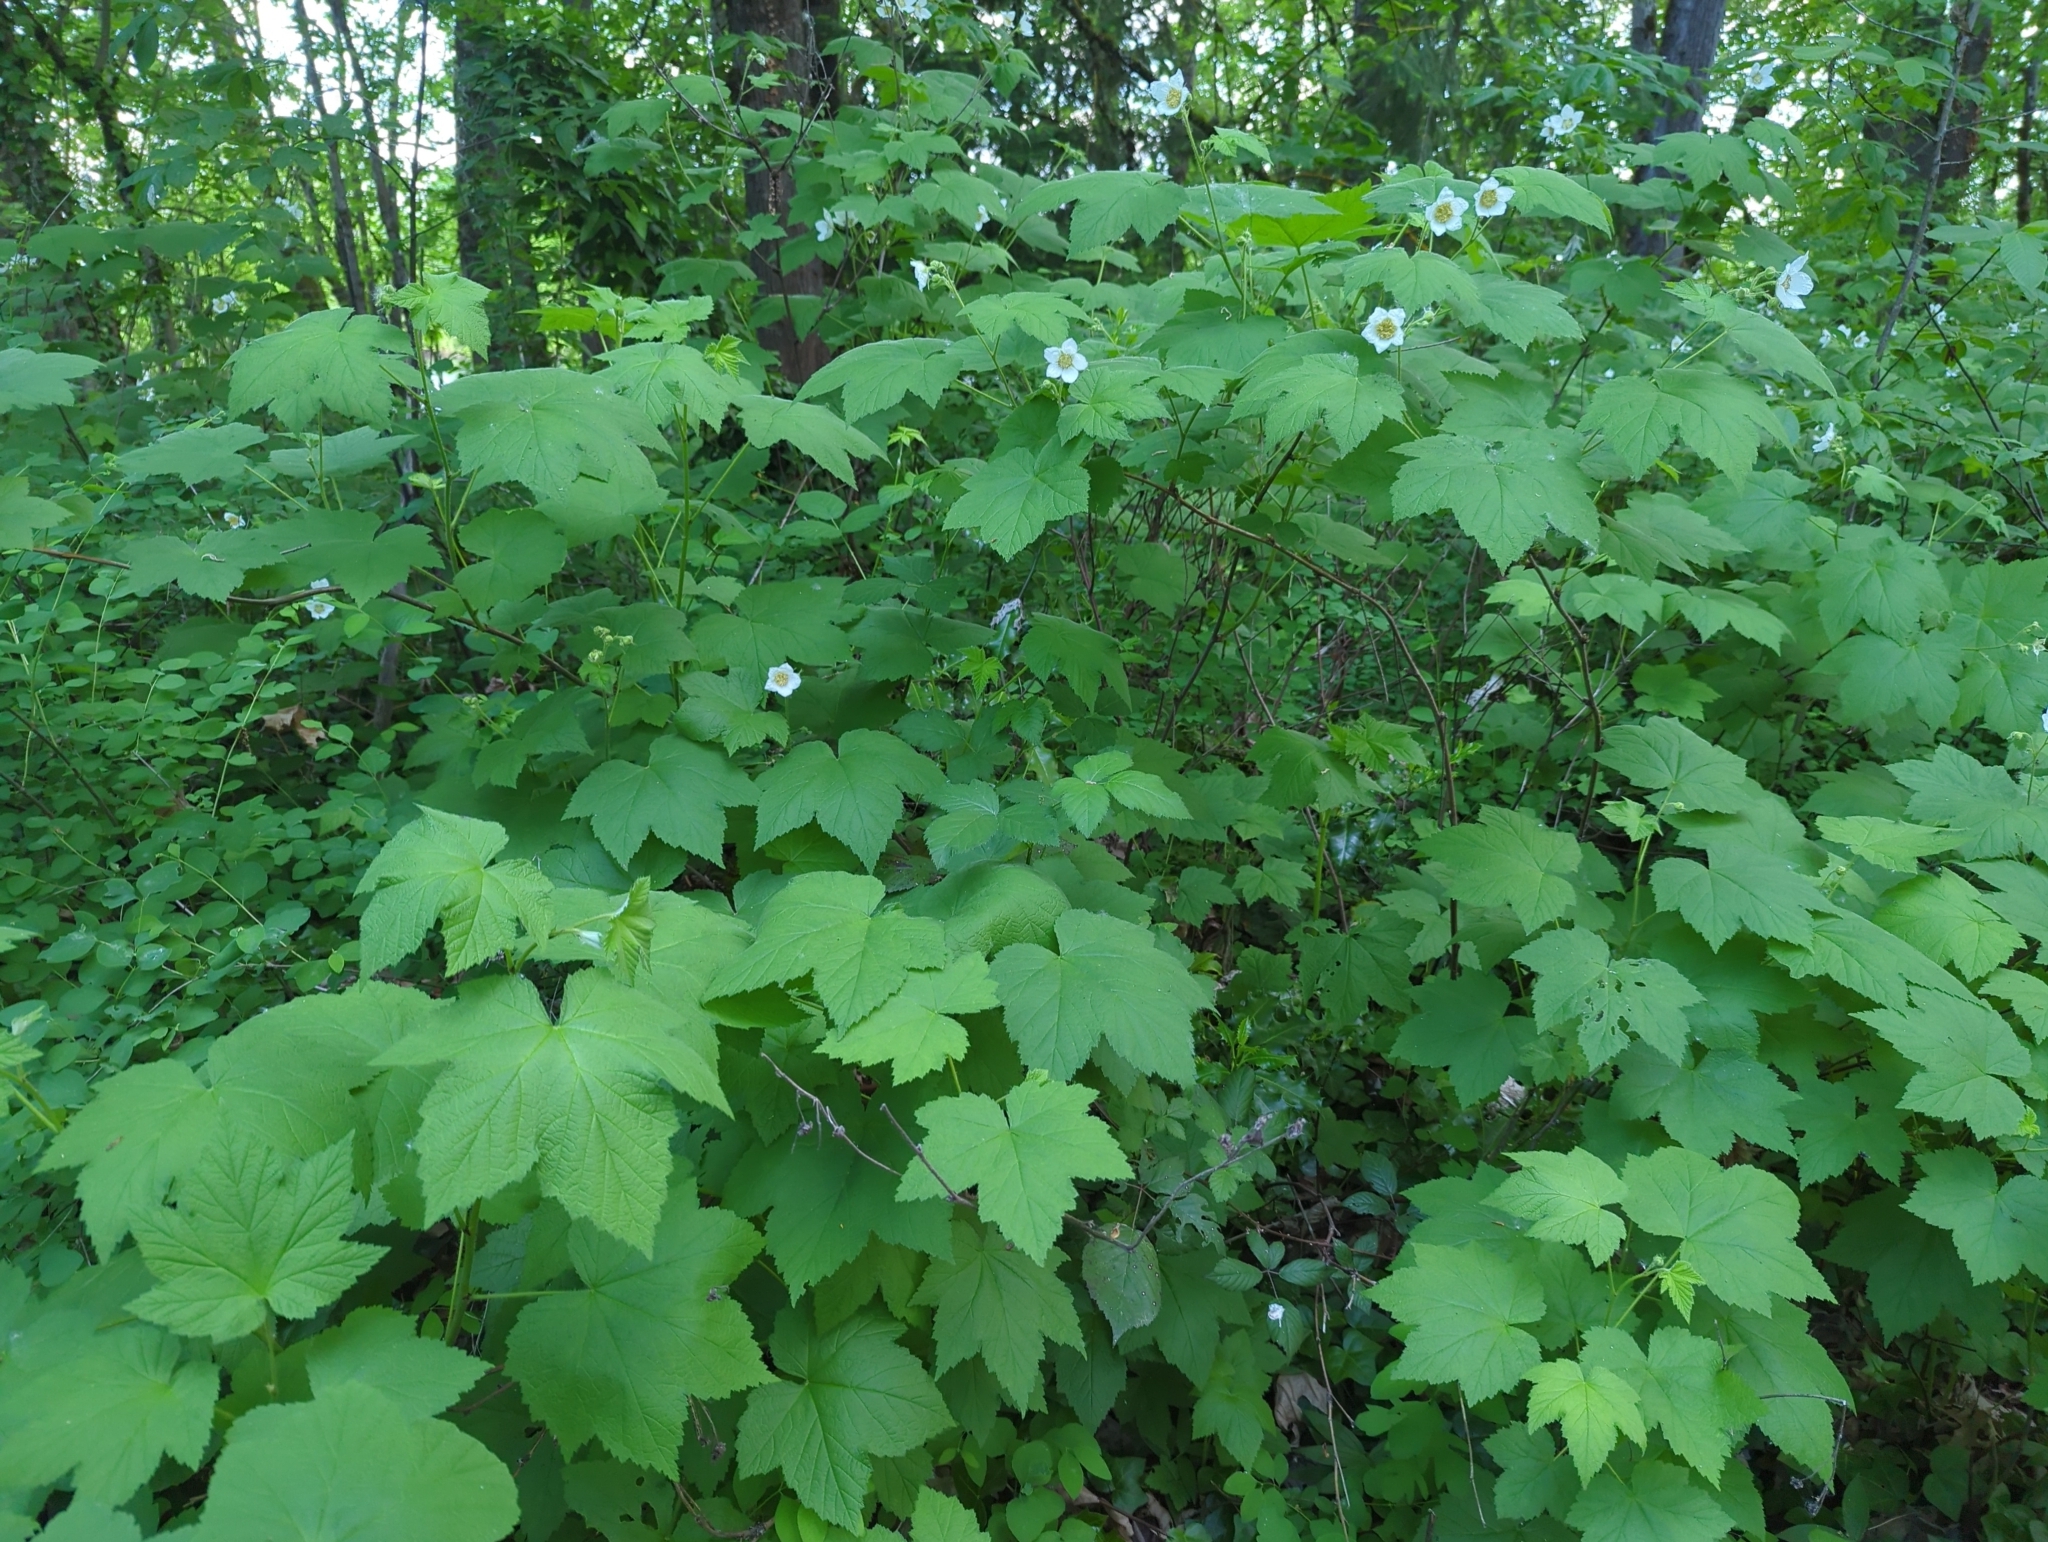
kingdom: Plantae
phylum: Tracheophyta
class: Magnoliopsida
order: Rosales
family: Rosaceae
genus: Rubus
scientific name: Rubus parviflorus
